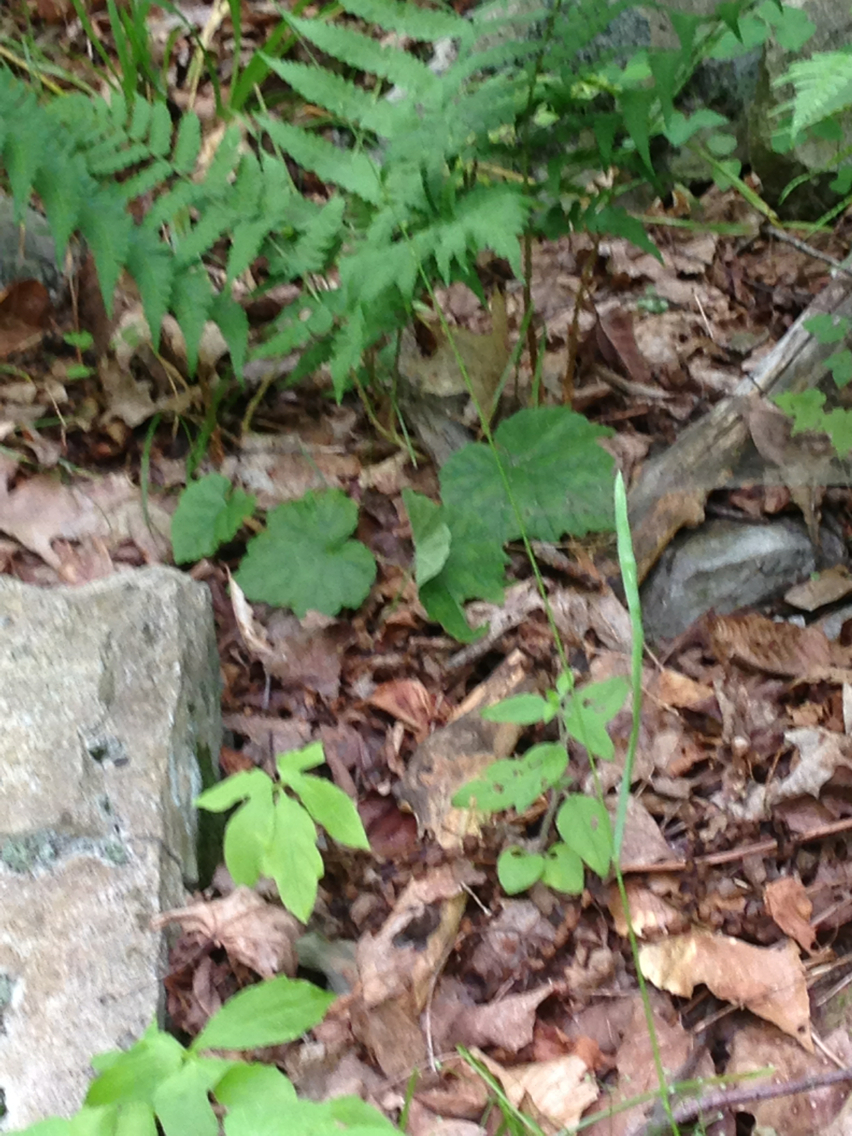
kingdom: Plantae
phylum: Tracheophyta
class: Magnoliopsida
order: Saxifragales
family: Saxifragaceae
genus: Tiarella
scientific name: Tiarella stolonifera
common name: Stoloniferous foamflower
